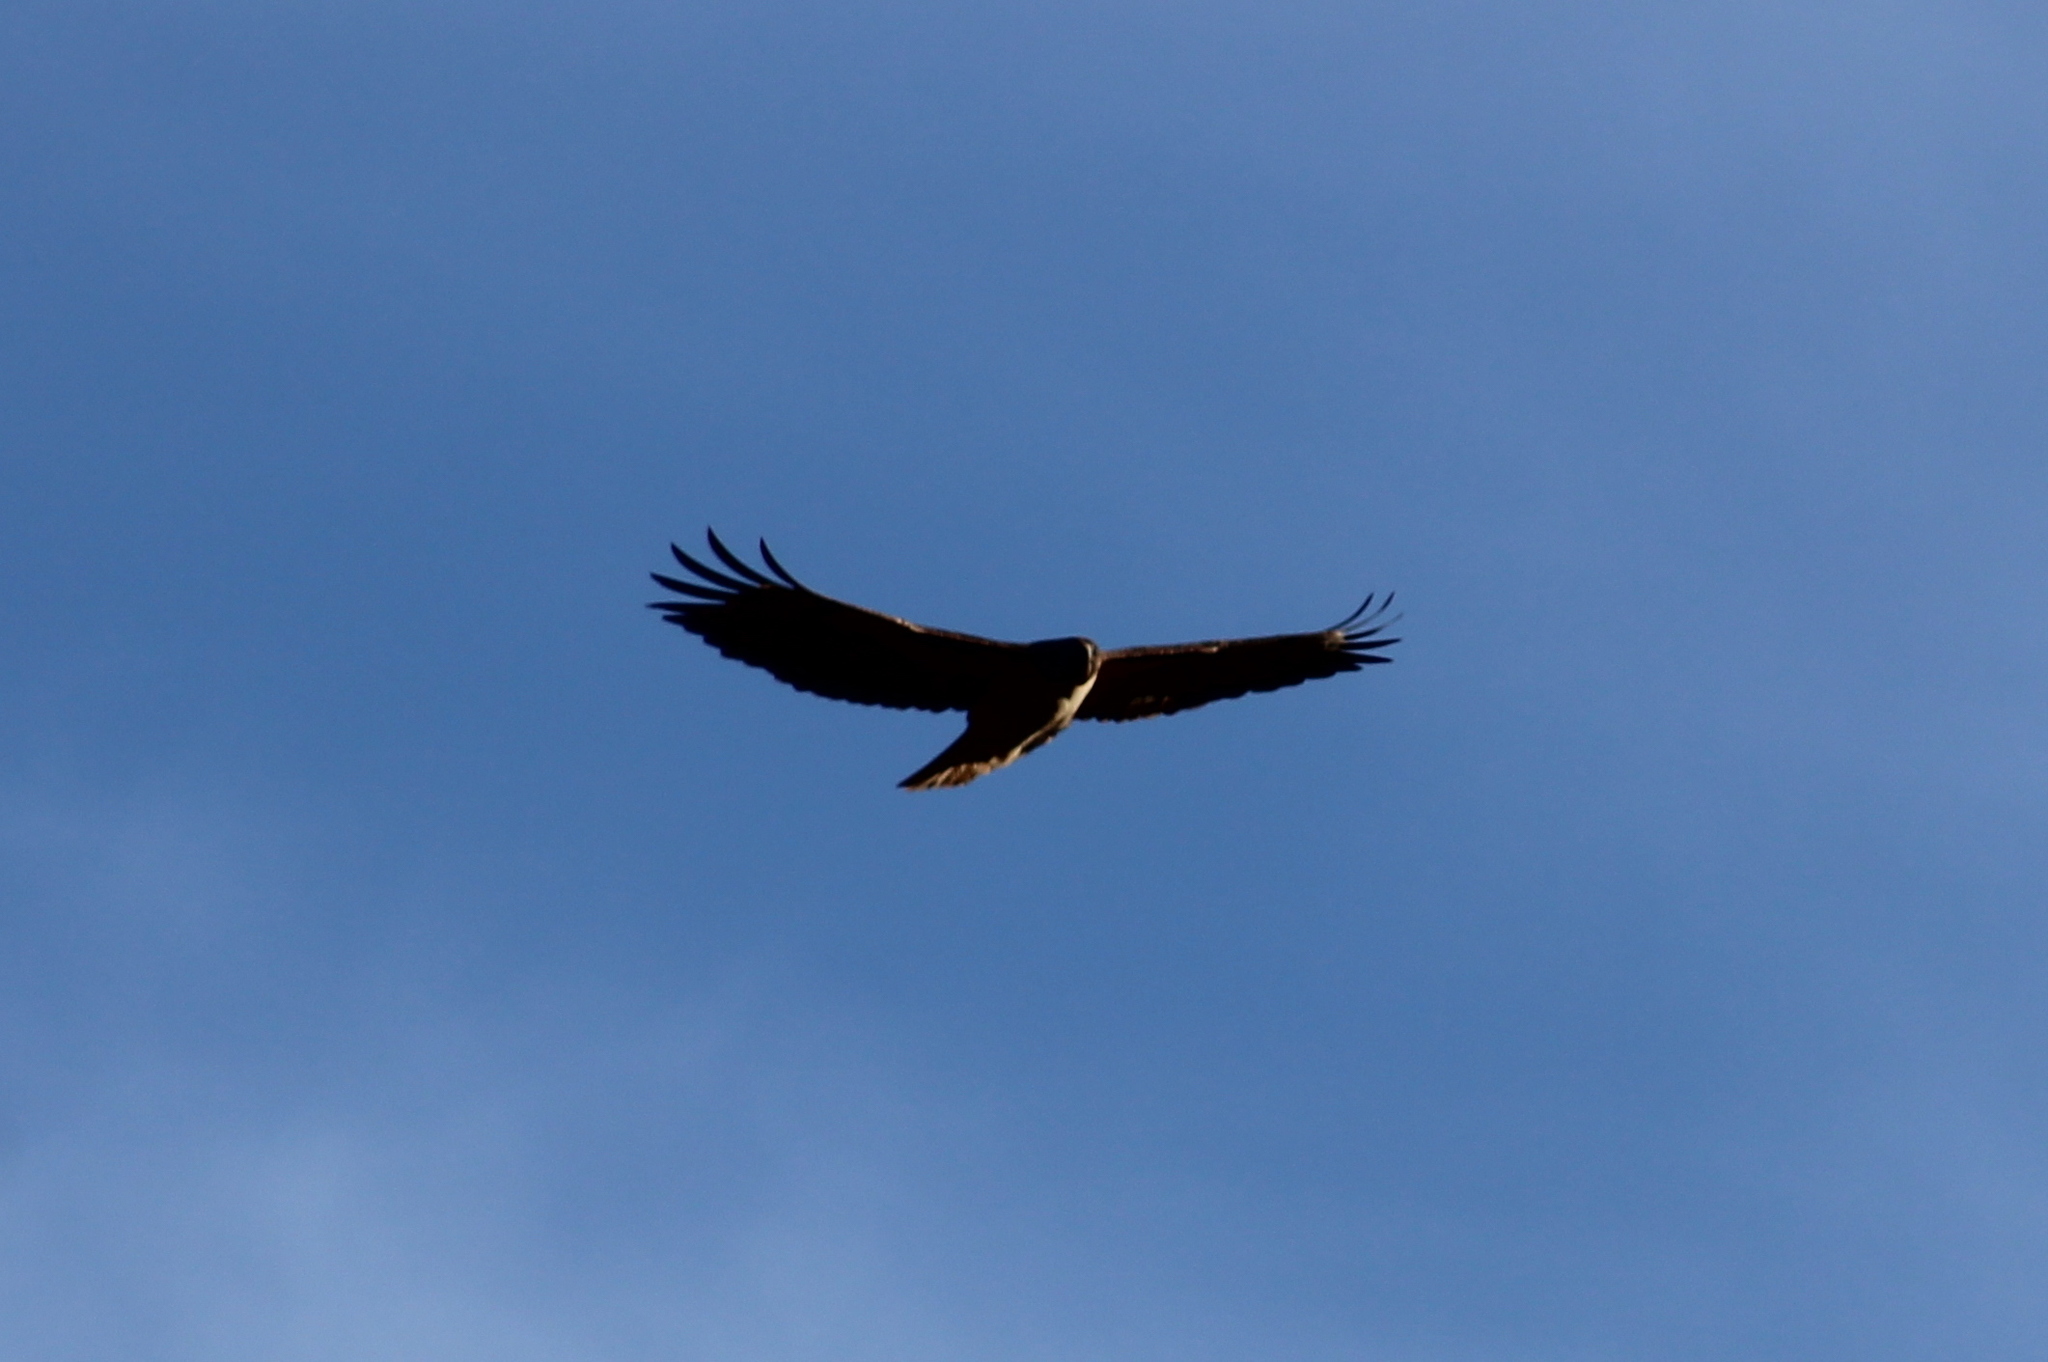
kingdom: Animalia
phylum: Chordata
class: Aves
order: Accipitriformes
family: Accipitridae
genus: Buteo
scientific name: Buteo jamaicensis
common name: Red-tailed hawk
